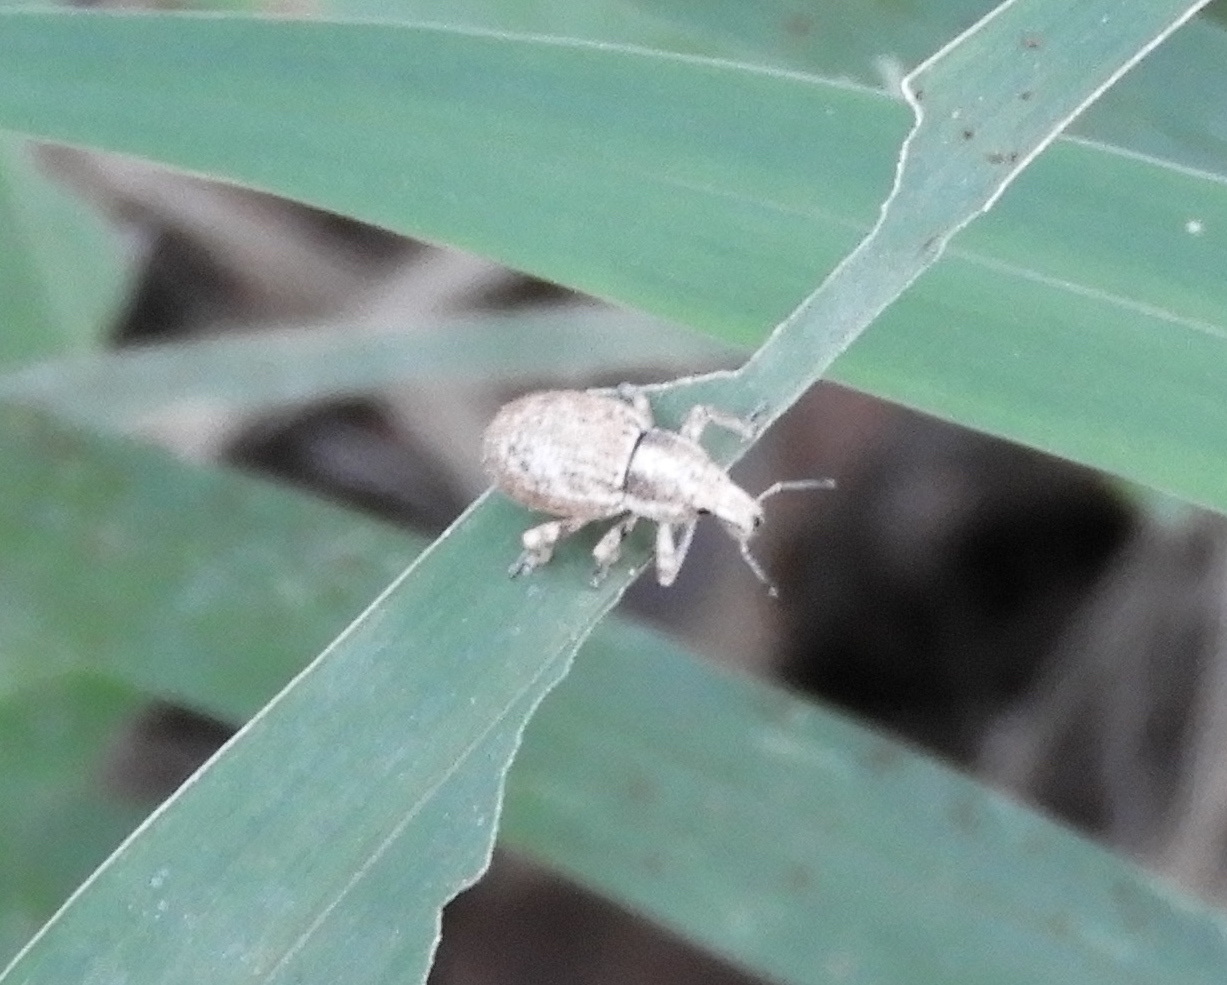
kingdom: Animalia
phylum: Arthropoda
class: Insecta
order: Coleoptera
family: Curculionidae
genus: Ophryastes
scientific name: Ophryastes
